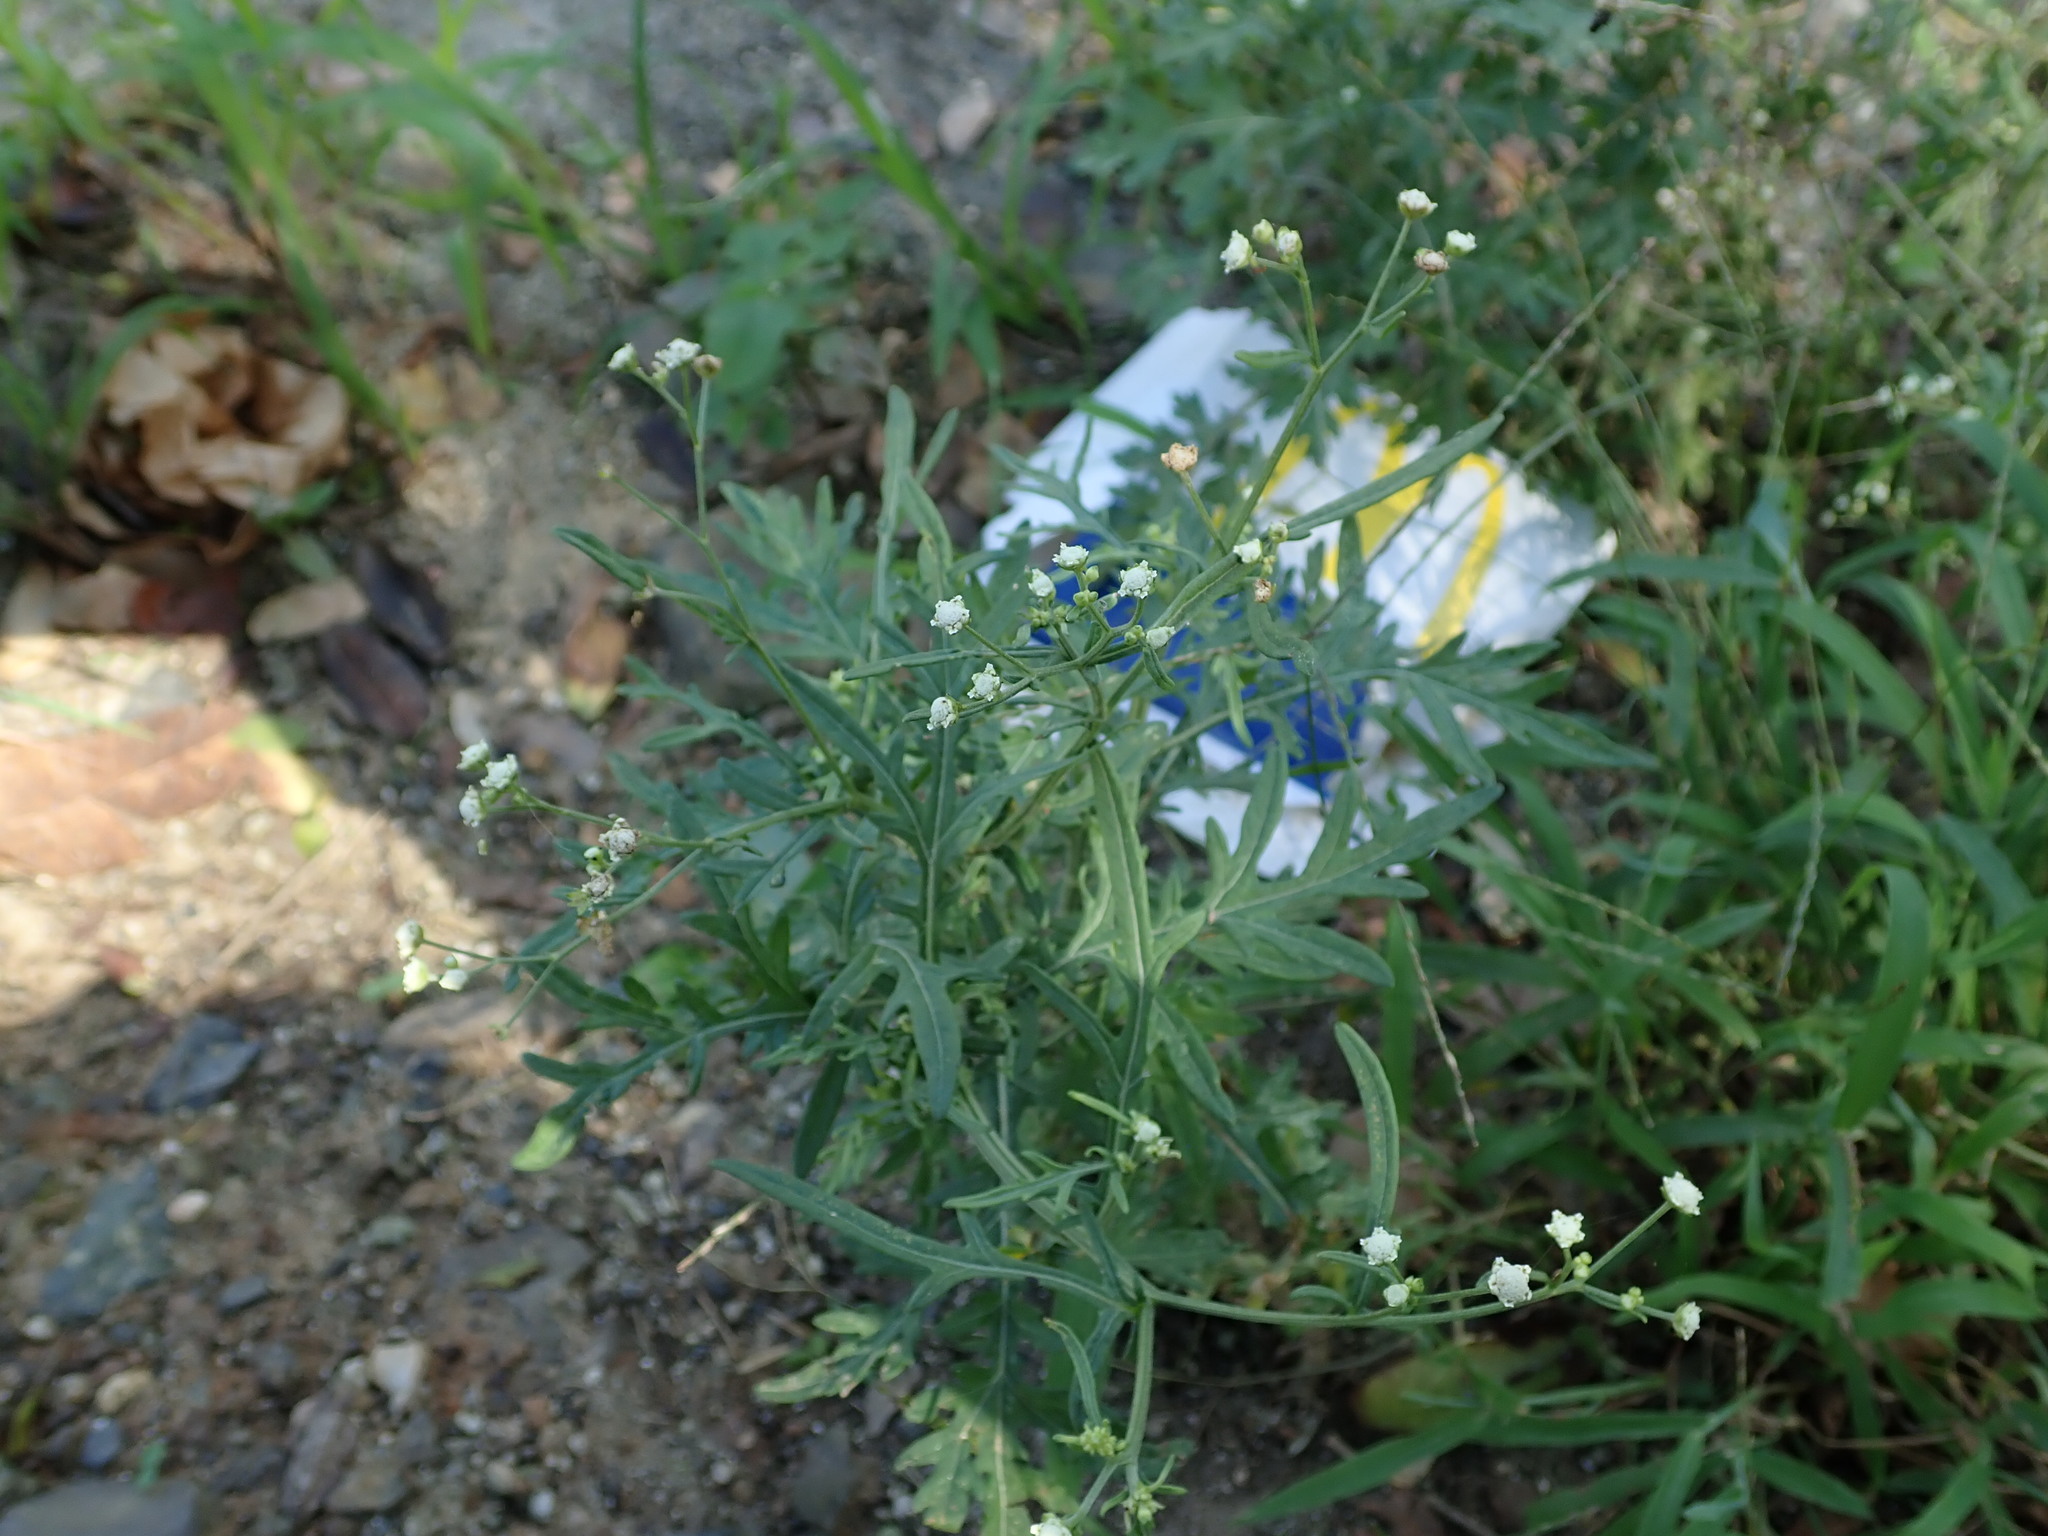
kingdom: Plantae
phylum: Tracheophyta
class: Magnoliopsida
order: Asterales
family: Asteraceae
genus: Parthenium
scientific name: Parthenium hysterophorus
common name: Santa maria feverfew
